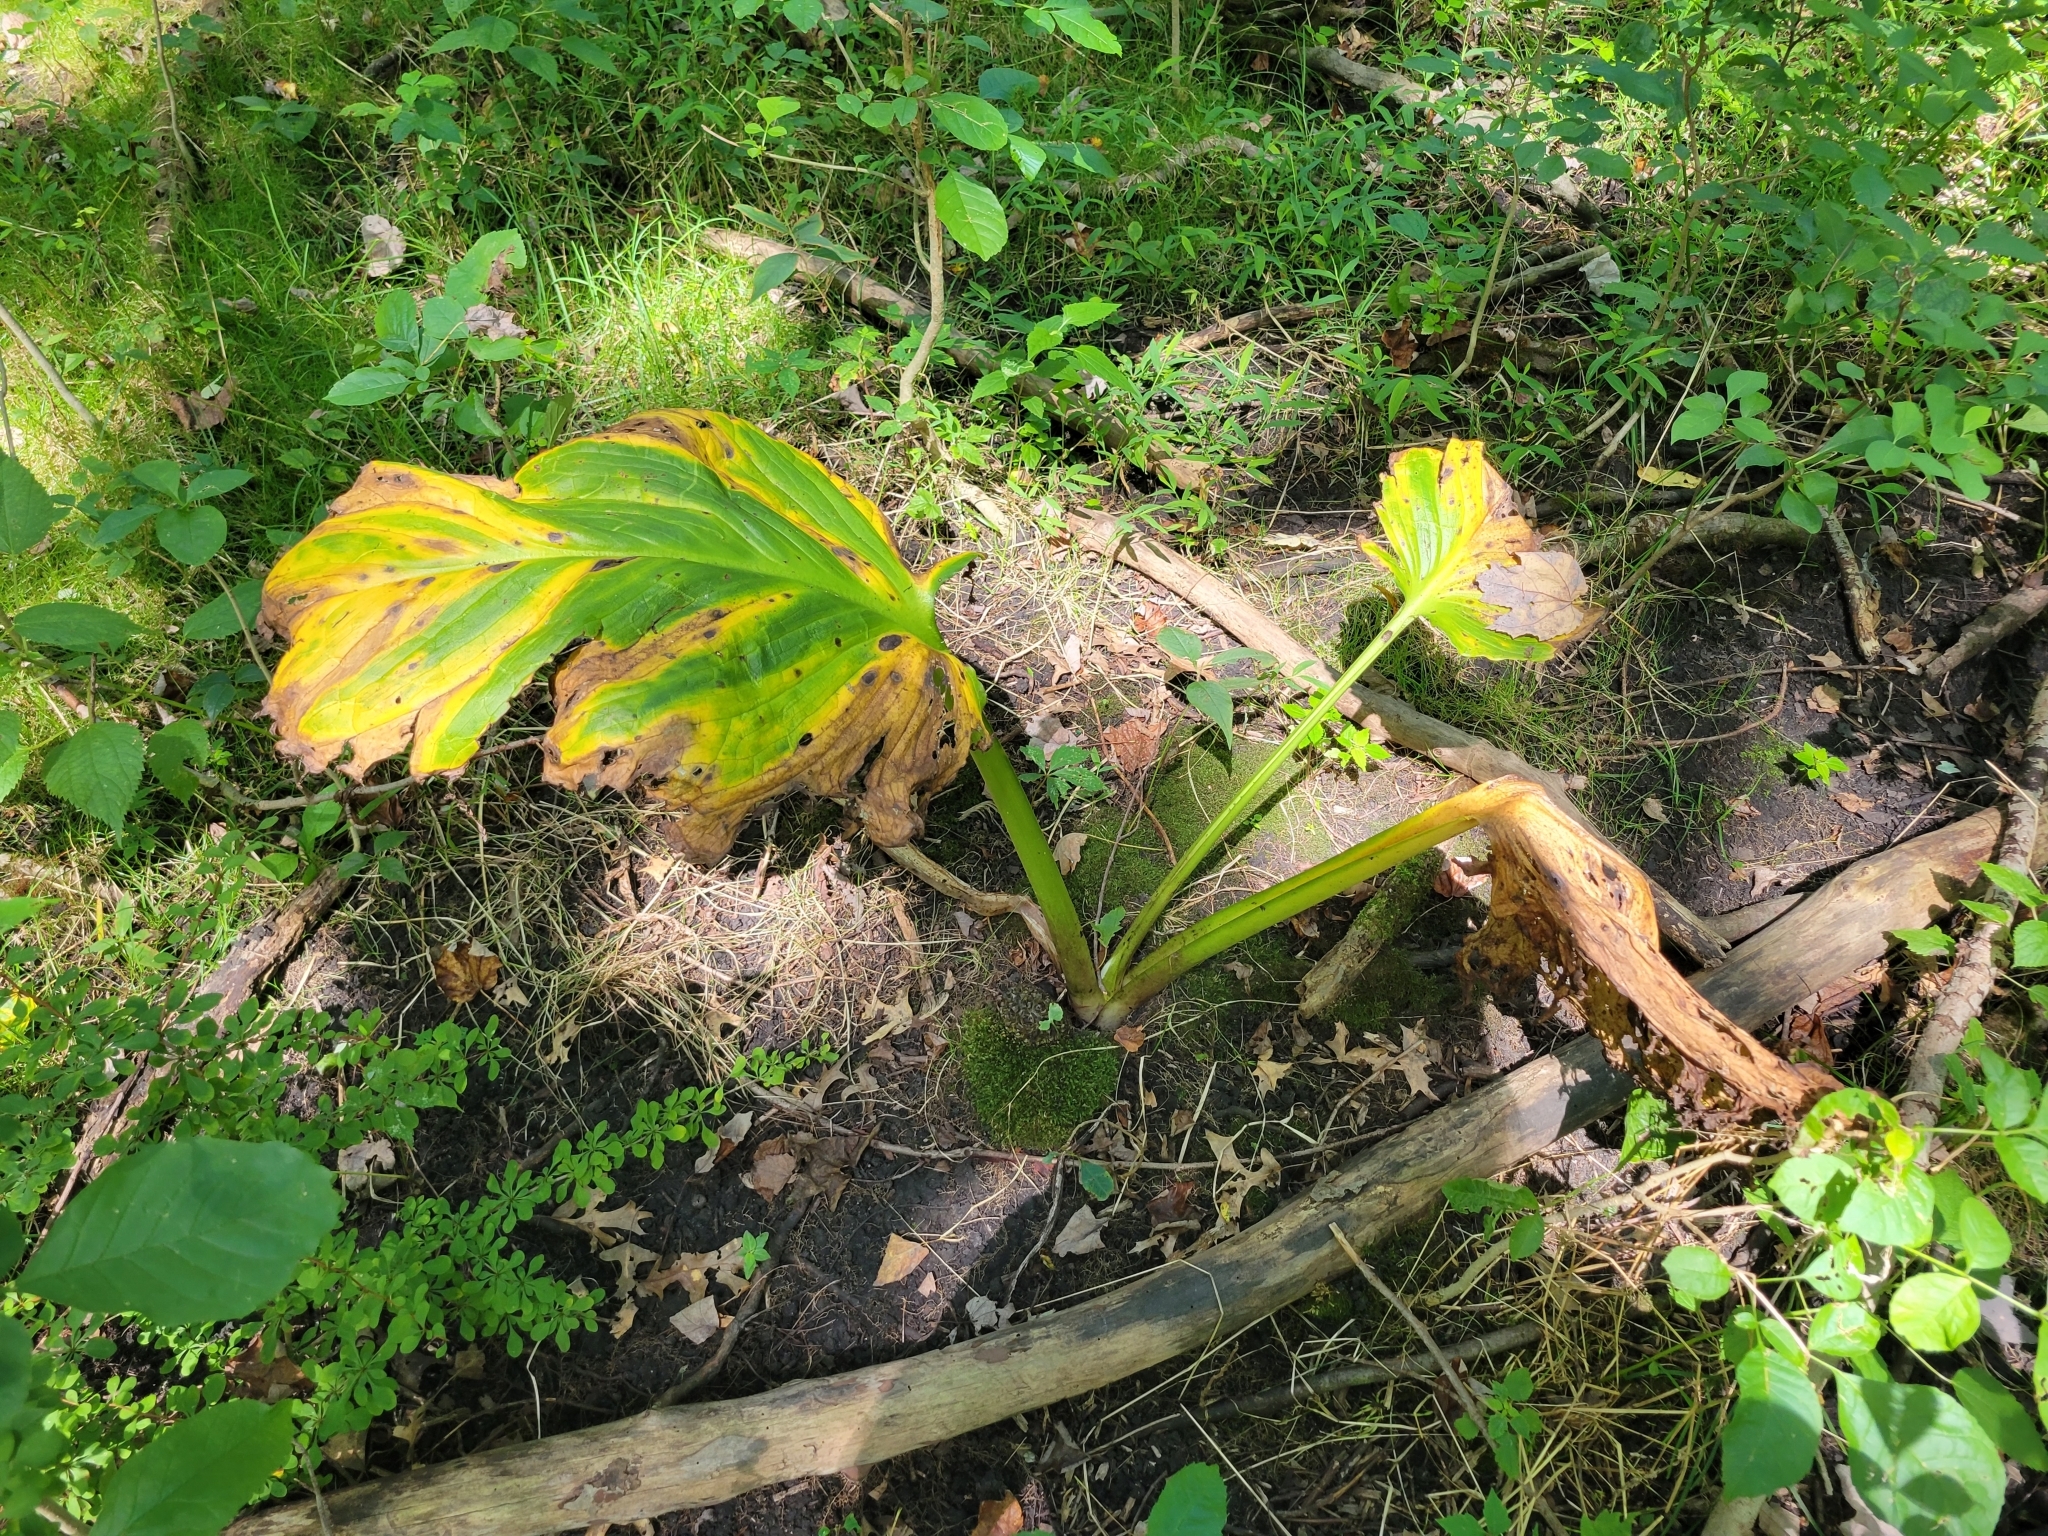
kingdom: Plantae
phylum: Tracheophyta
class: Liliopsida
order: Alismatales
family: Araceae
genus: Symplocarpus
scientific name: Symplocarpus foetidus
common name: Eastern skunk cabbage
